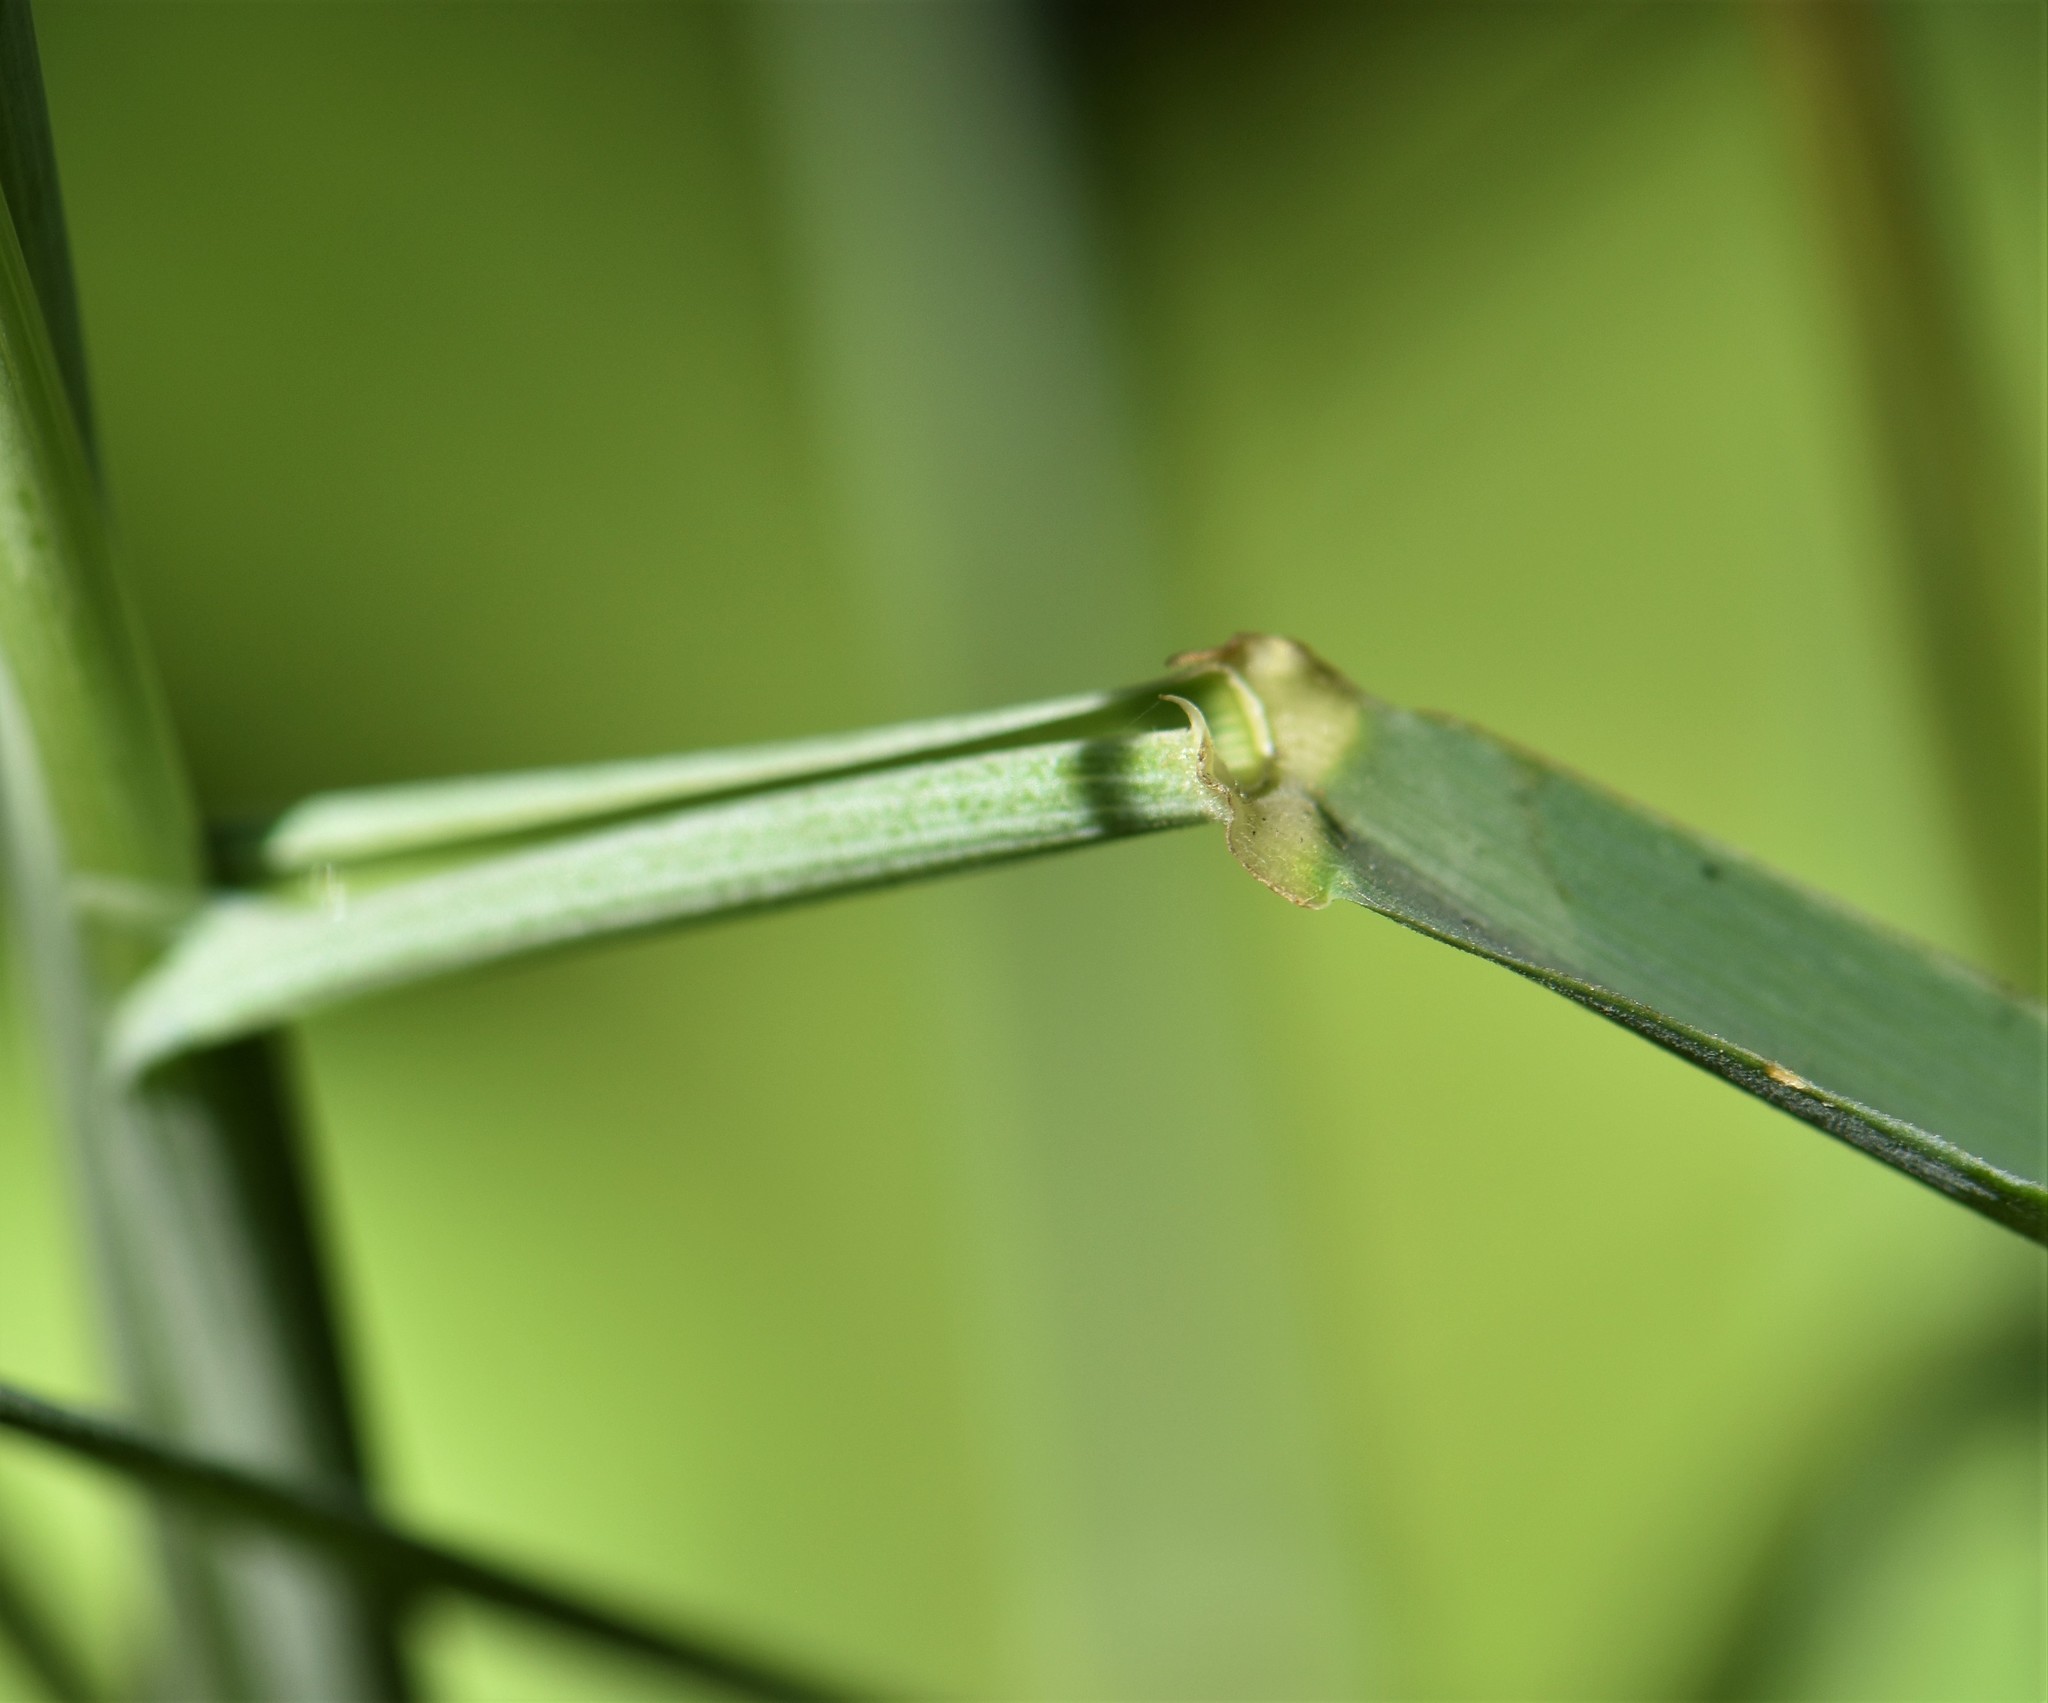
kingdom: Plantae
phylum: Tracheophyta
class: Liliopsida
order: Poales
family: Poaceae
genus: Leymus
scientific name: Leymus innovatus
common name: Boreal wild rye
